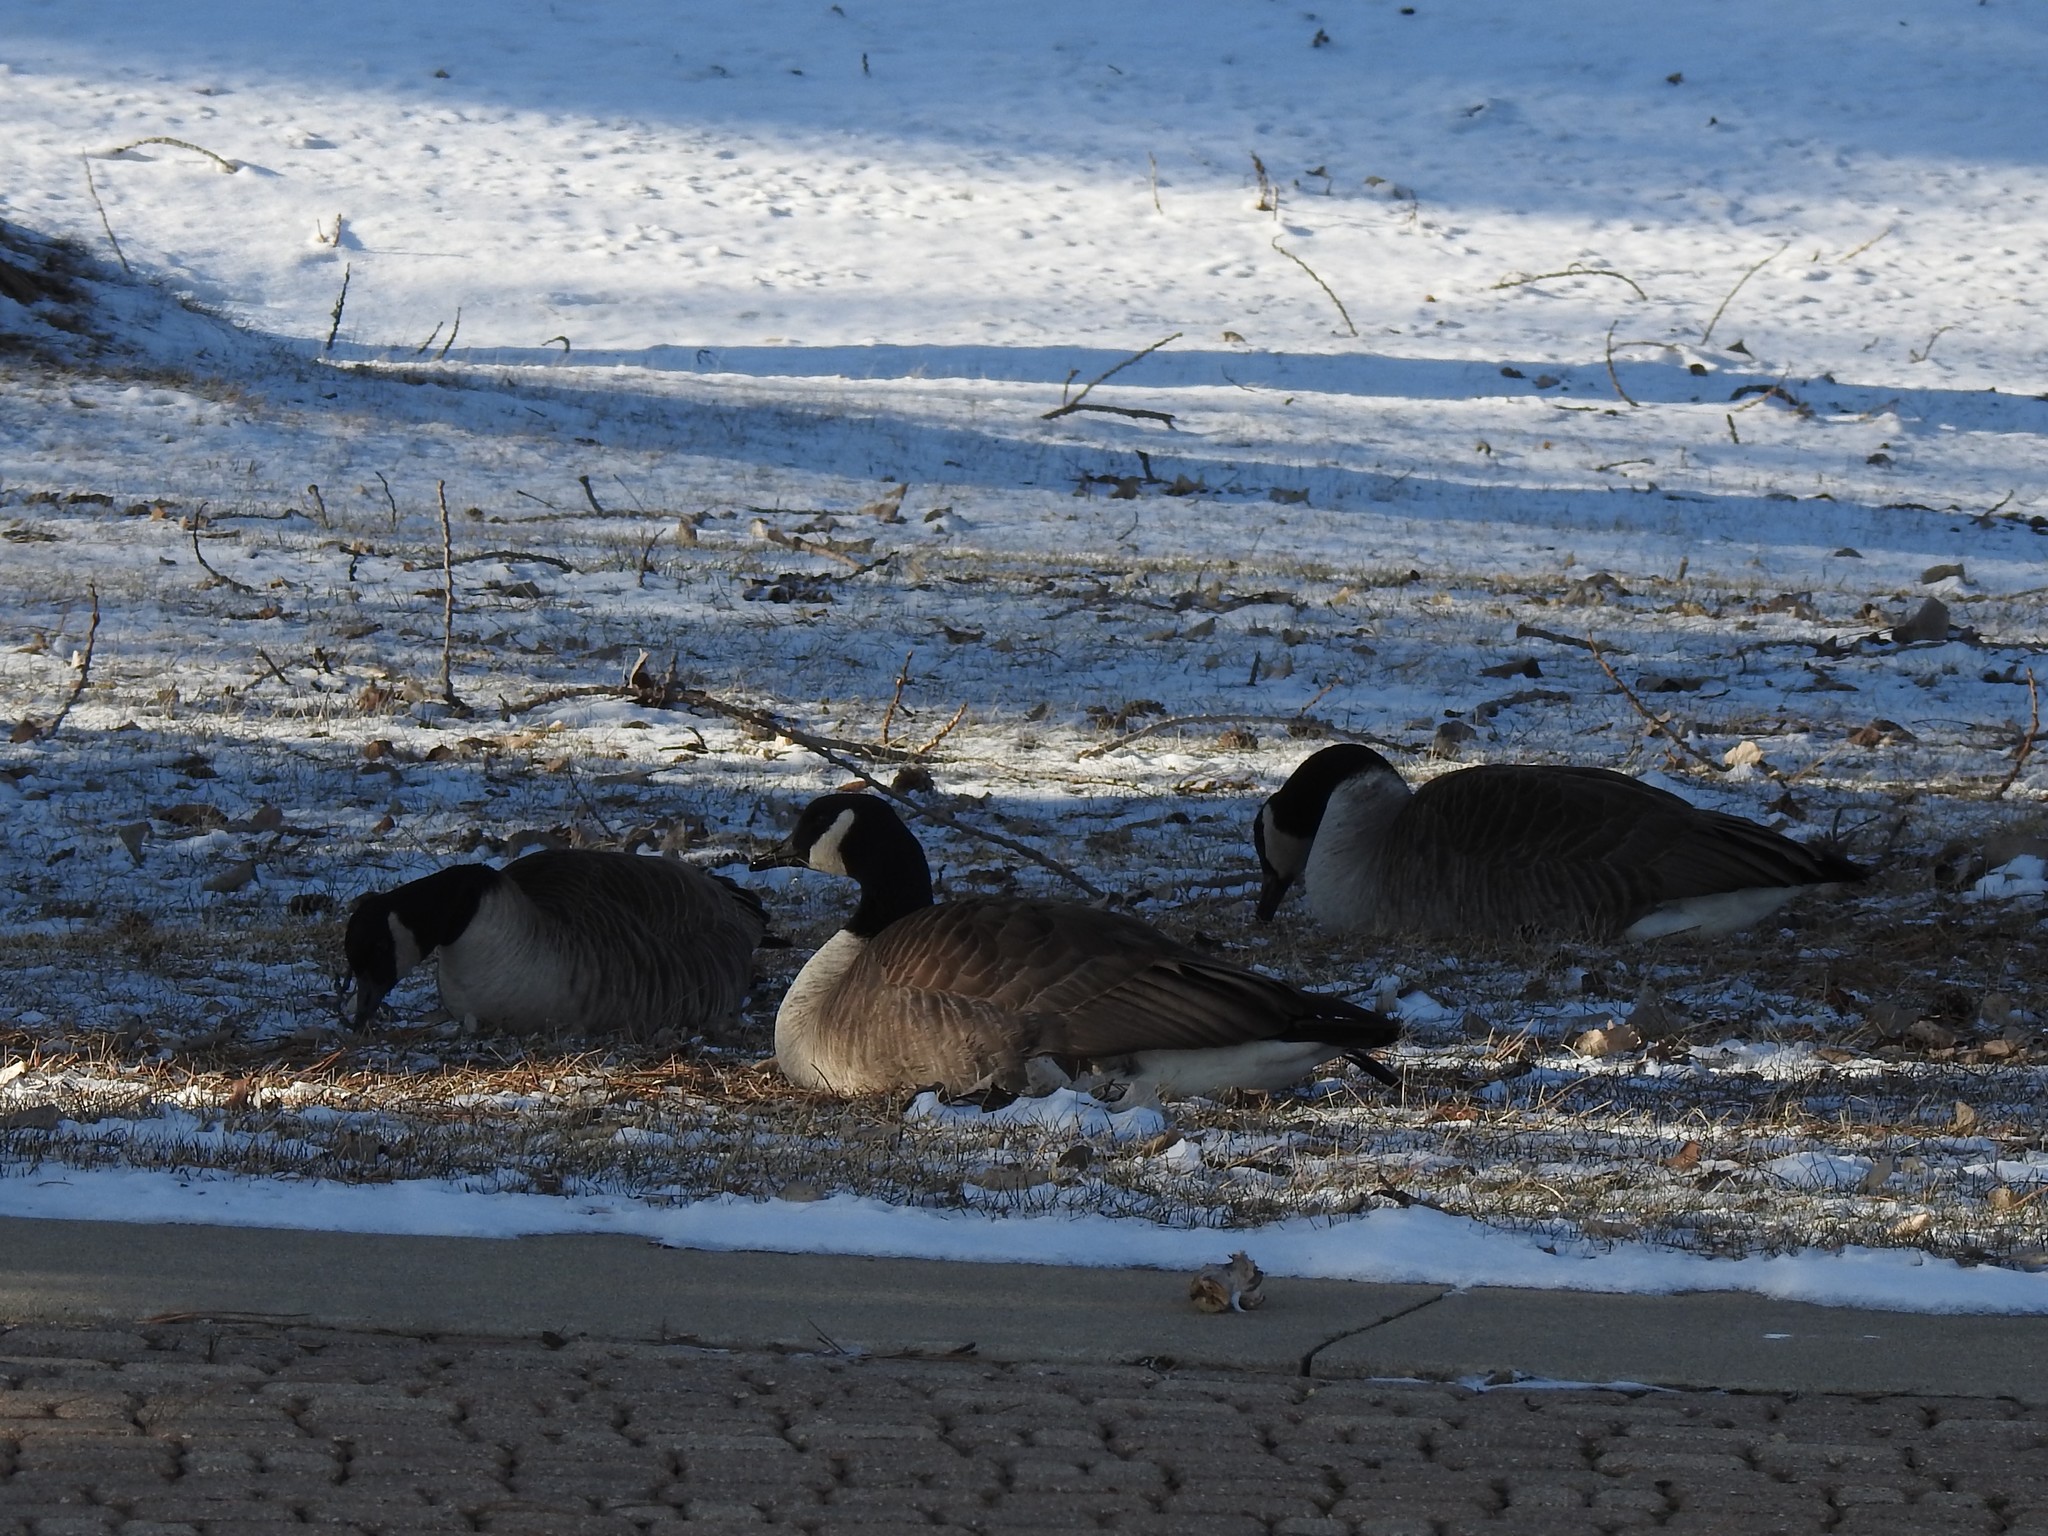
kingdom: Animalia
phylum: Chordata
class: Aves
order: Anseriformes
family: Anatidae
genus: Branta
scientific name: Branta canadensis
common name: Canada goose
